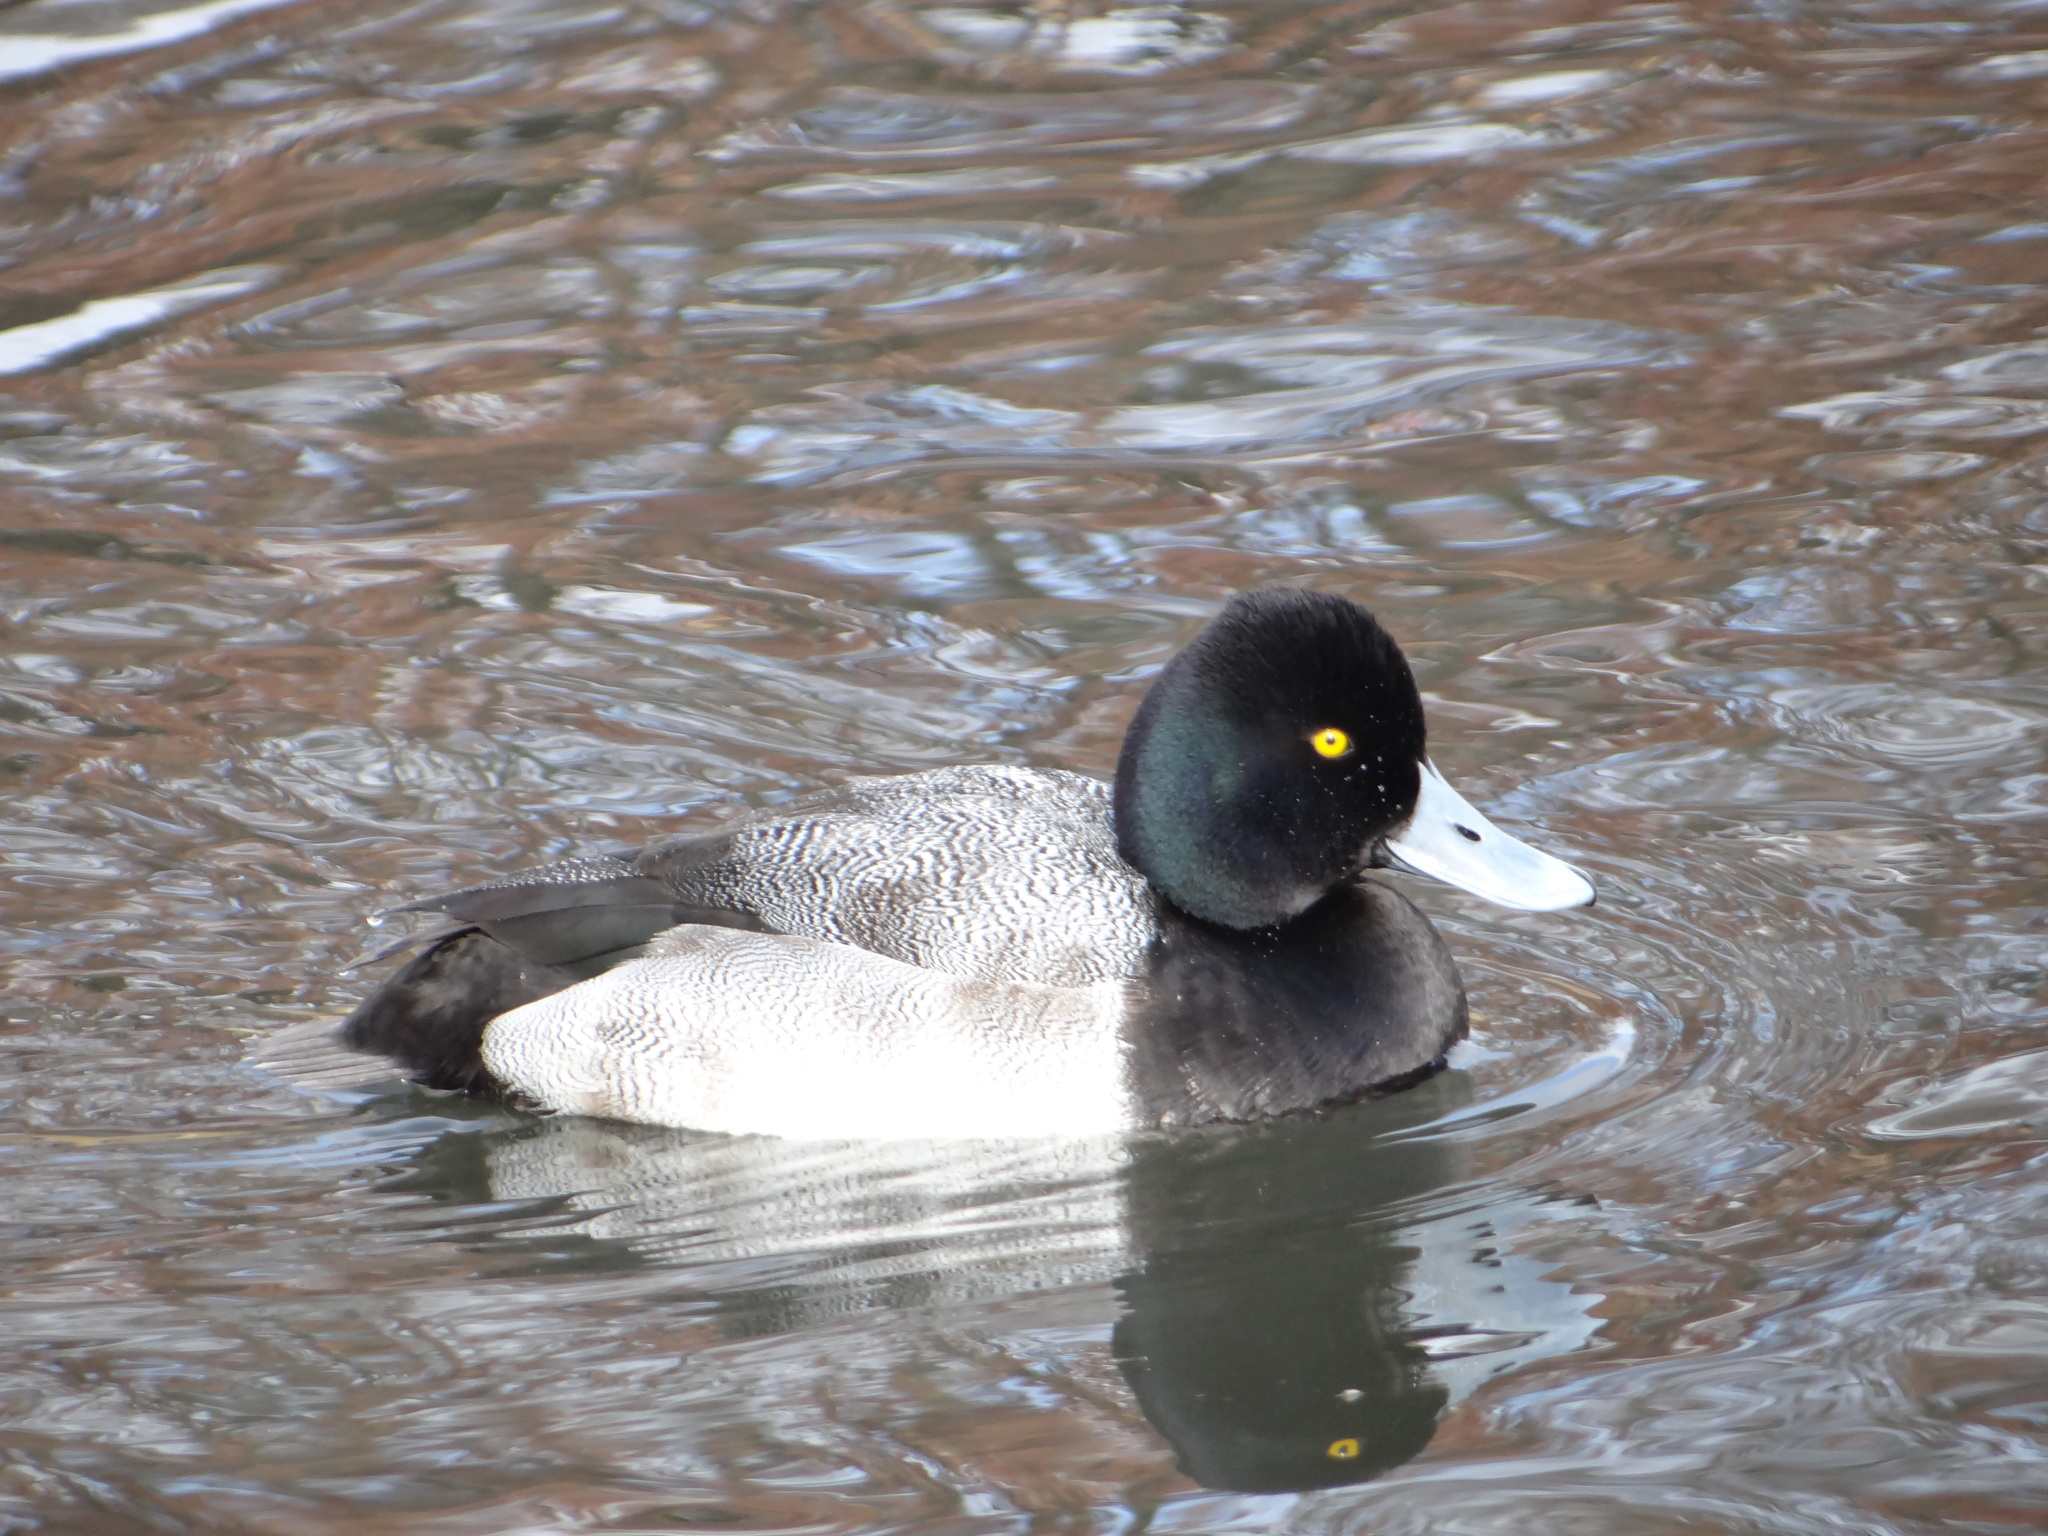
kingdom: Animalia
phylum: Chordata
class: Aves
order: Anseriformes
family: Anatidae
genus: Aythya
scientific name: Aythya affinis
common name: Lesser scaup
